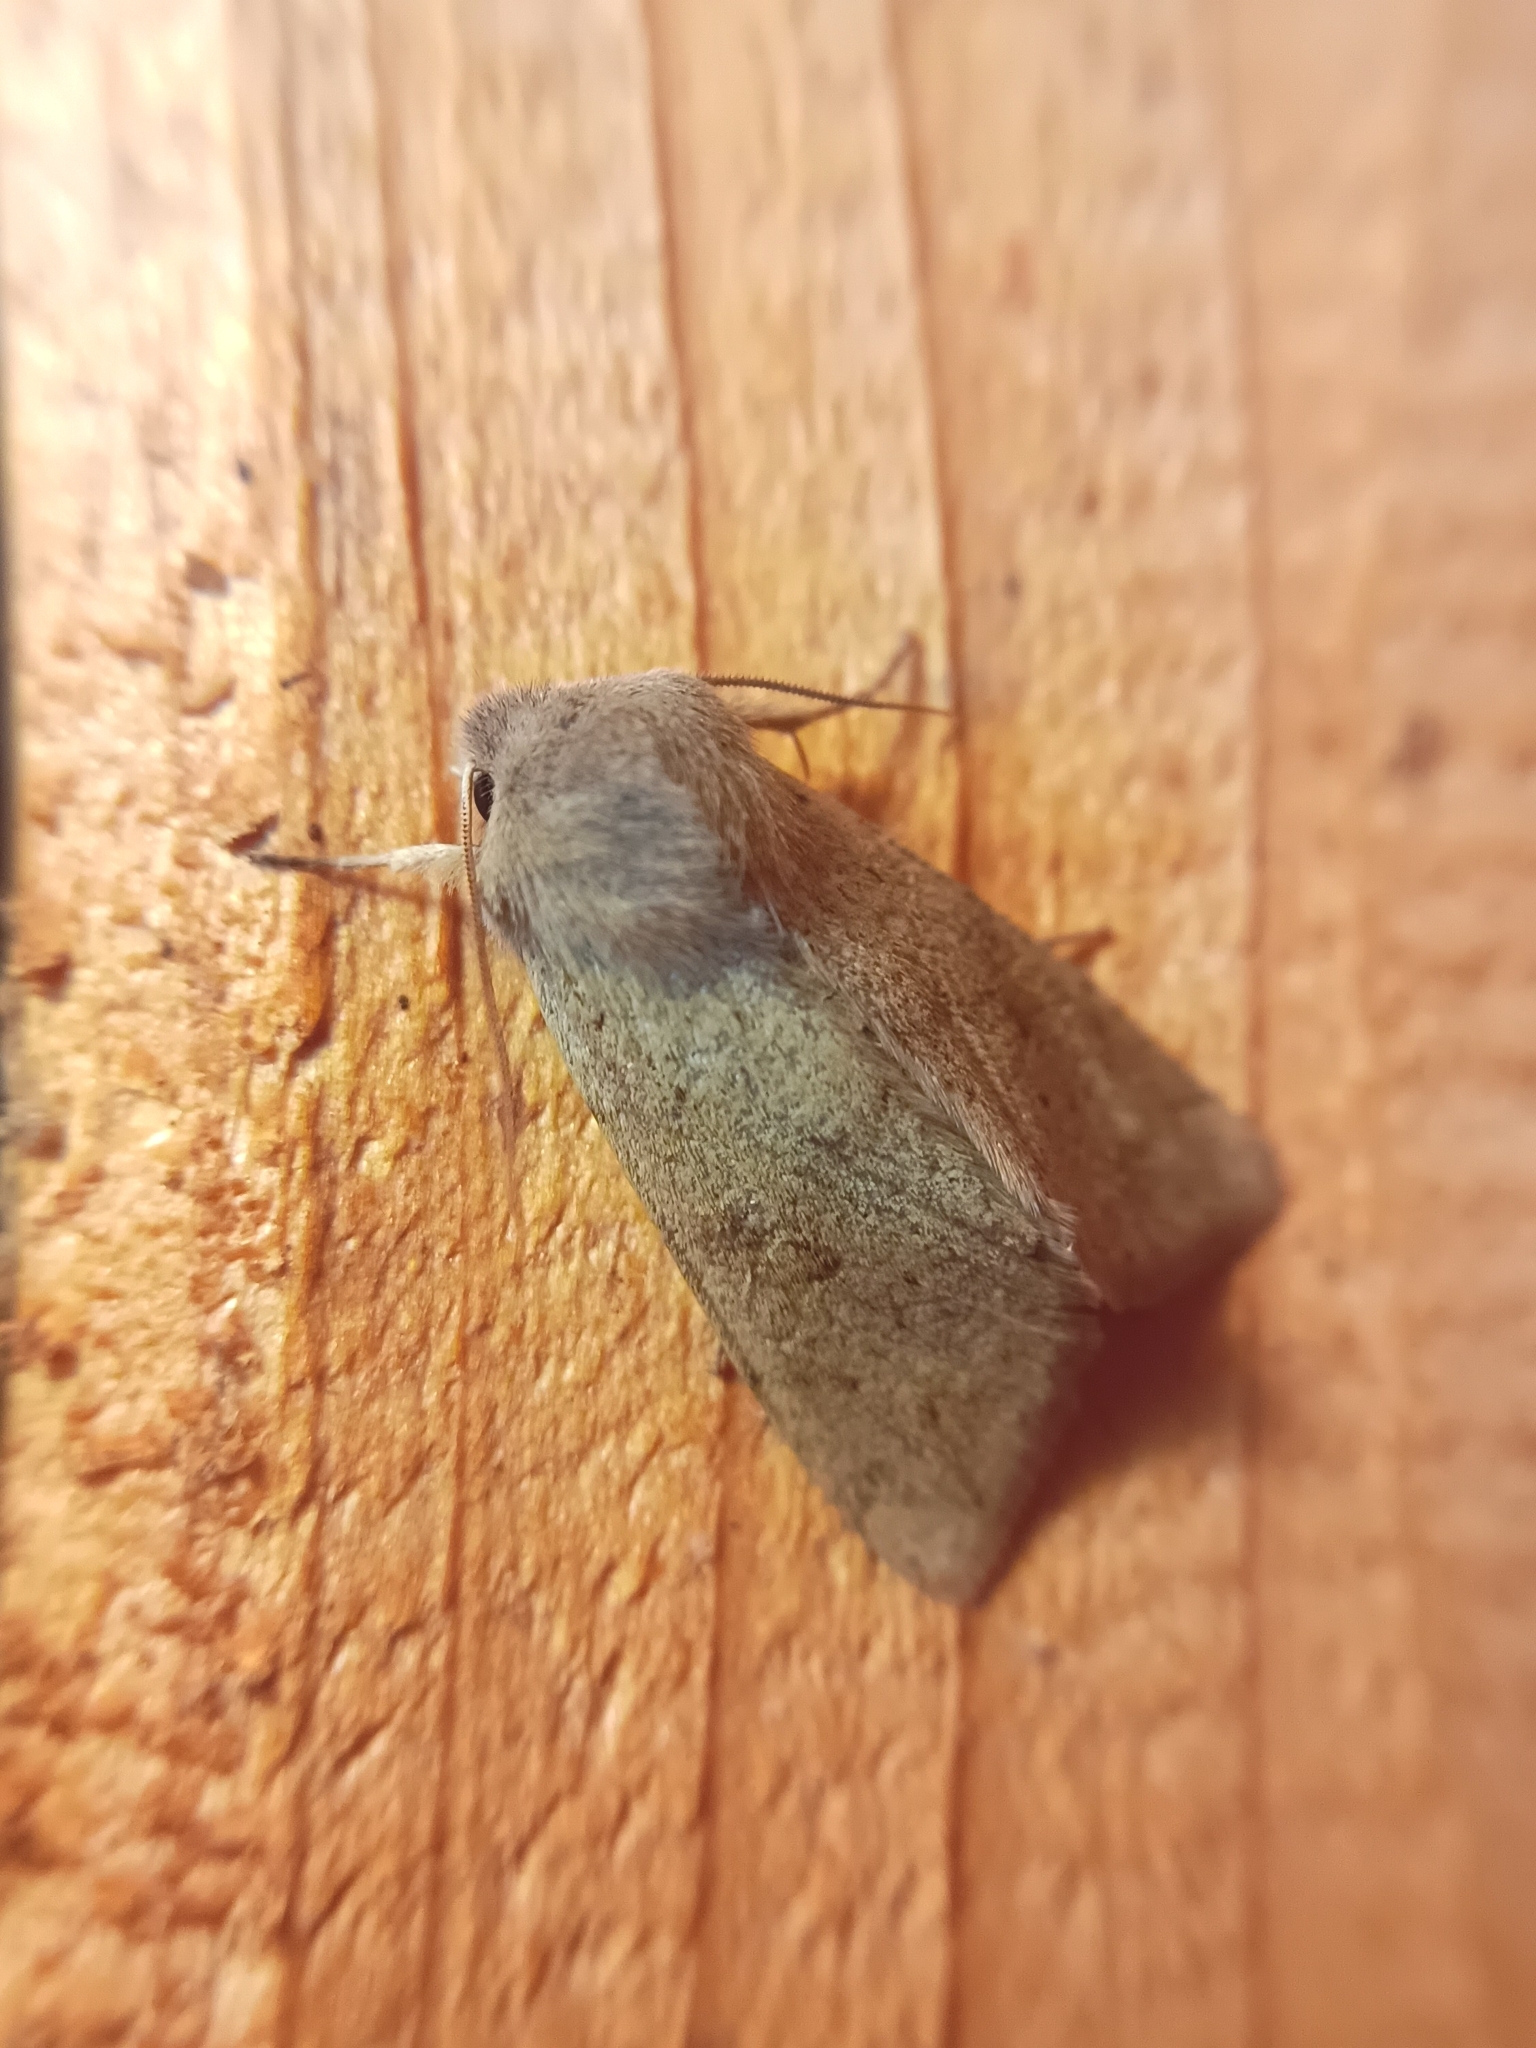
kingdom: Animalia
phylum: Arthropoda
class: Insecta
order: Lepidoptera
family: Noctuidae
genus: Orthosia
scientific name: Orthosia populeti
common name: Lead-coloured drab
